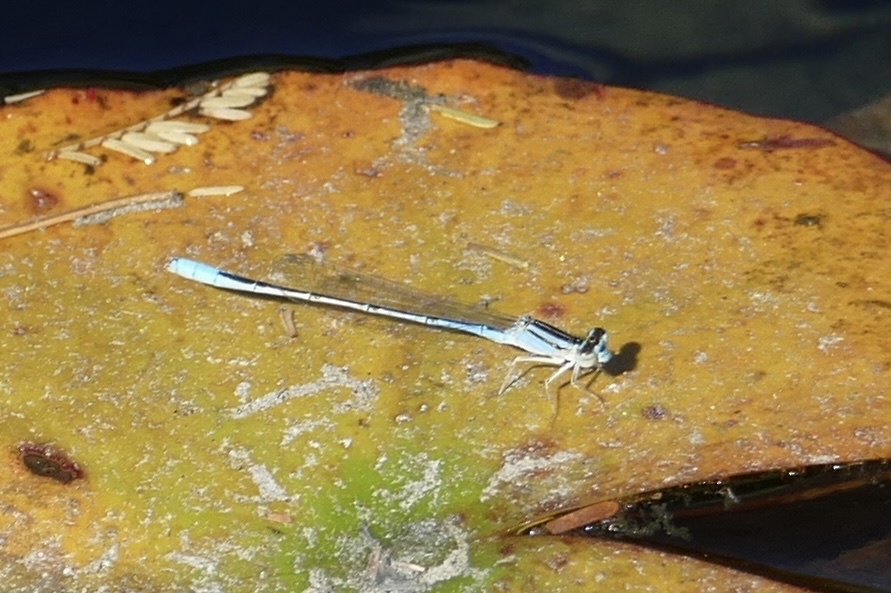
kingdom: Animalia
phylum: Arthropoda
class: Insecta
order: Odonata
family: Coenagrionidae
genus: Africallagma
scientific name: Africallagma glaucum
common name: Swamp bluet
